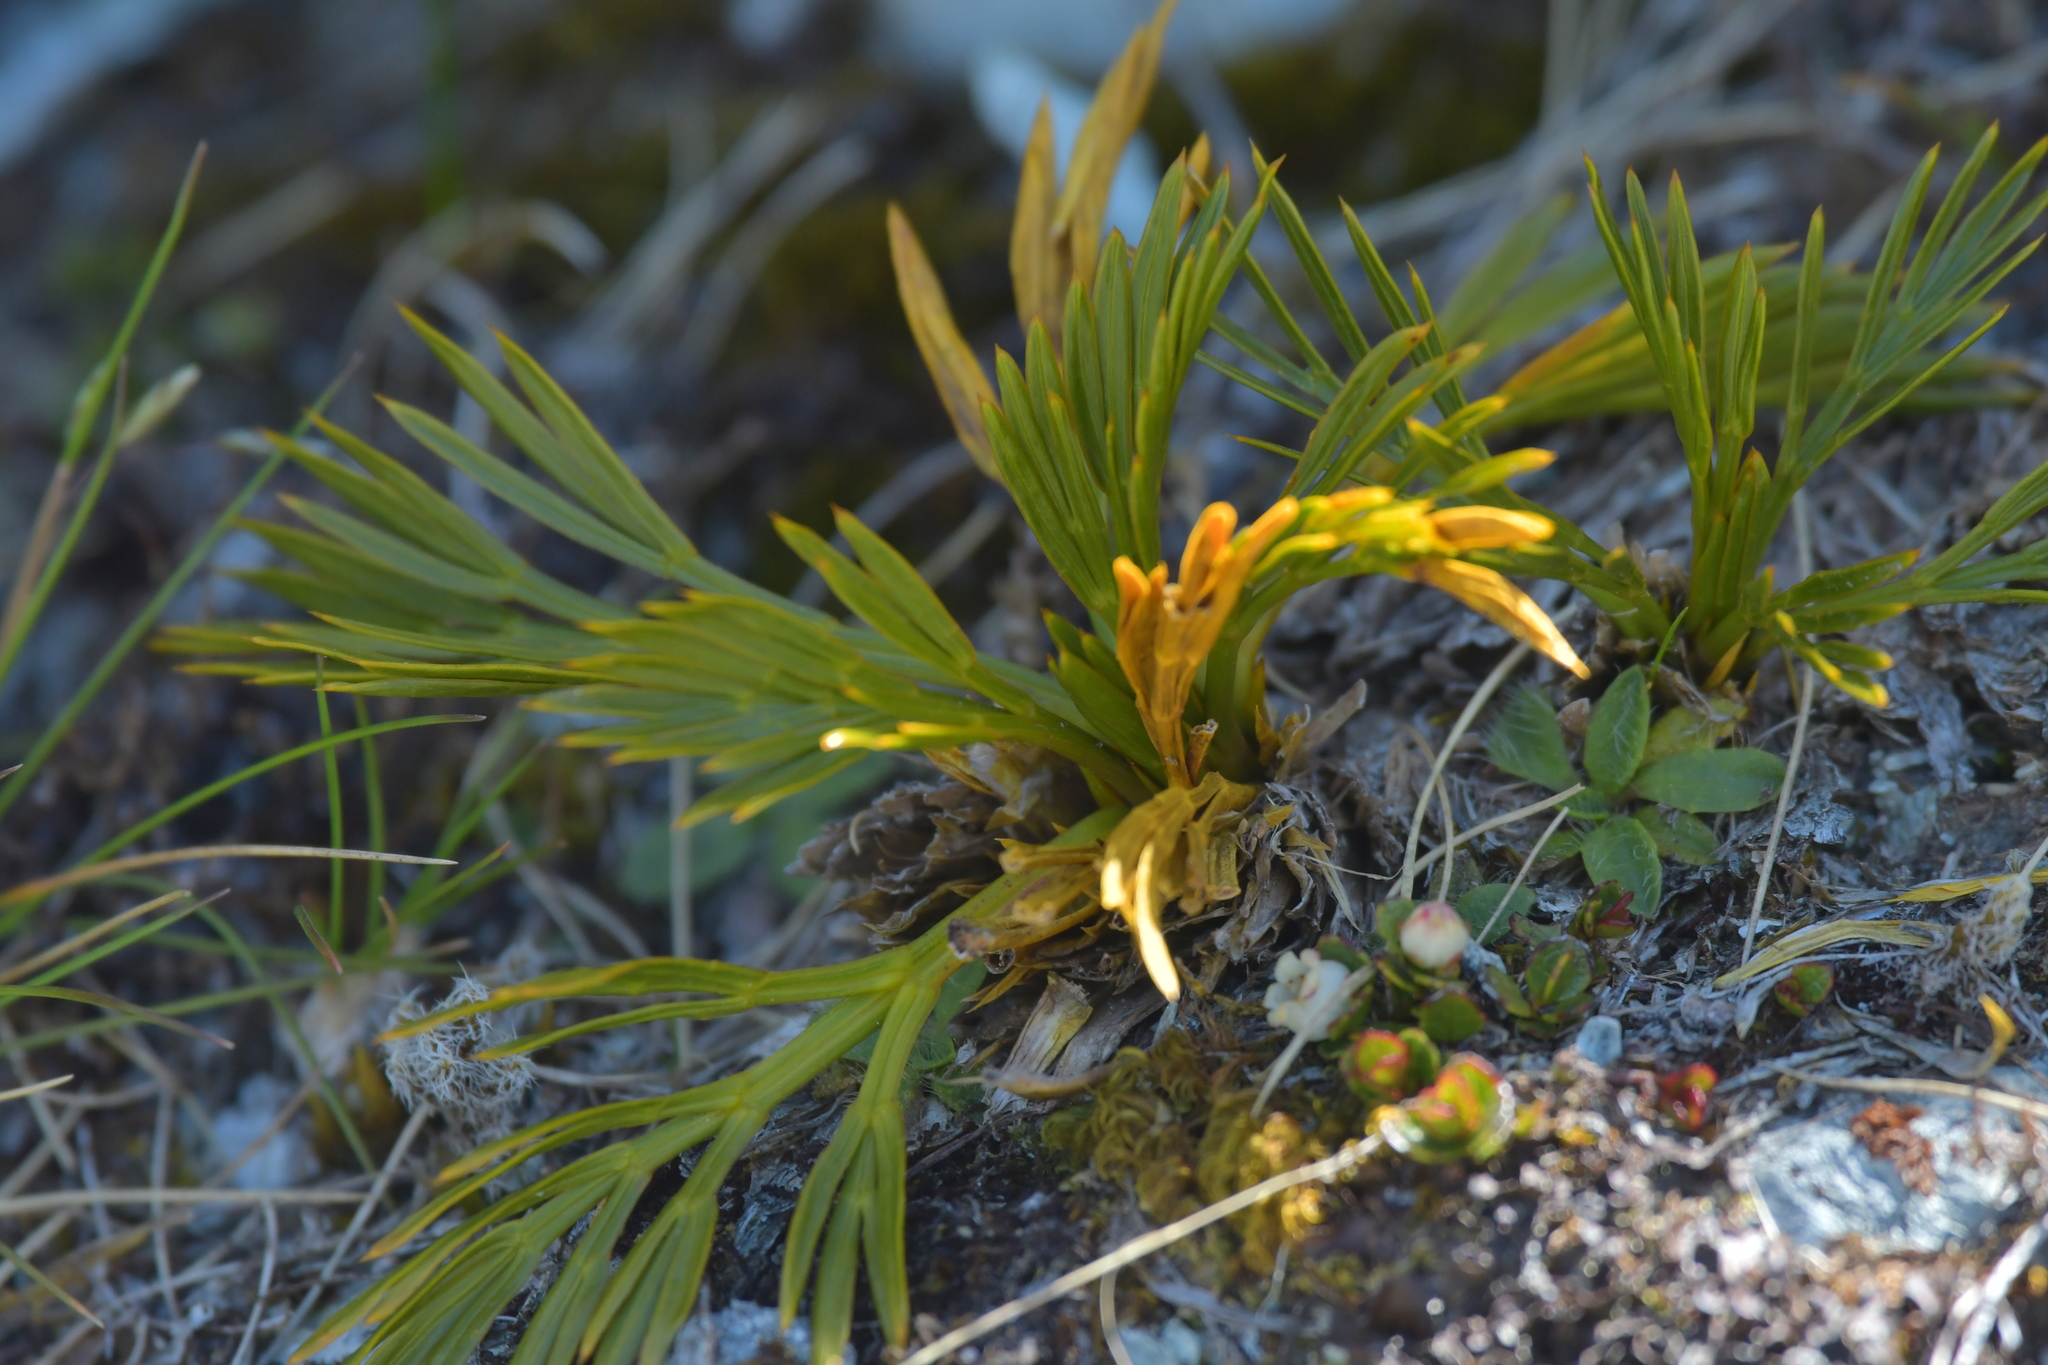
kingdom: Plantae
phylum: Tracheophyta
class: Magnoliopsida
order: Apiales
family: Apiaceae
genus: Aciphylla
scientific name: Aciphylla divisa
